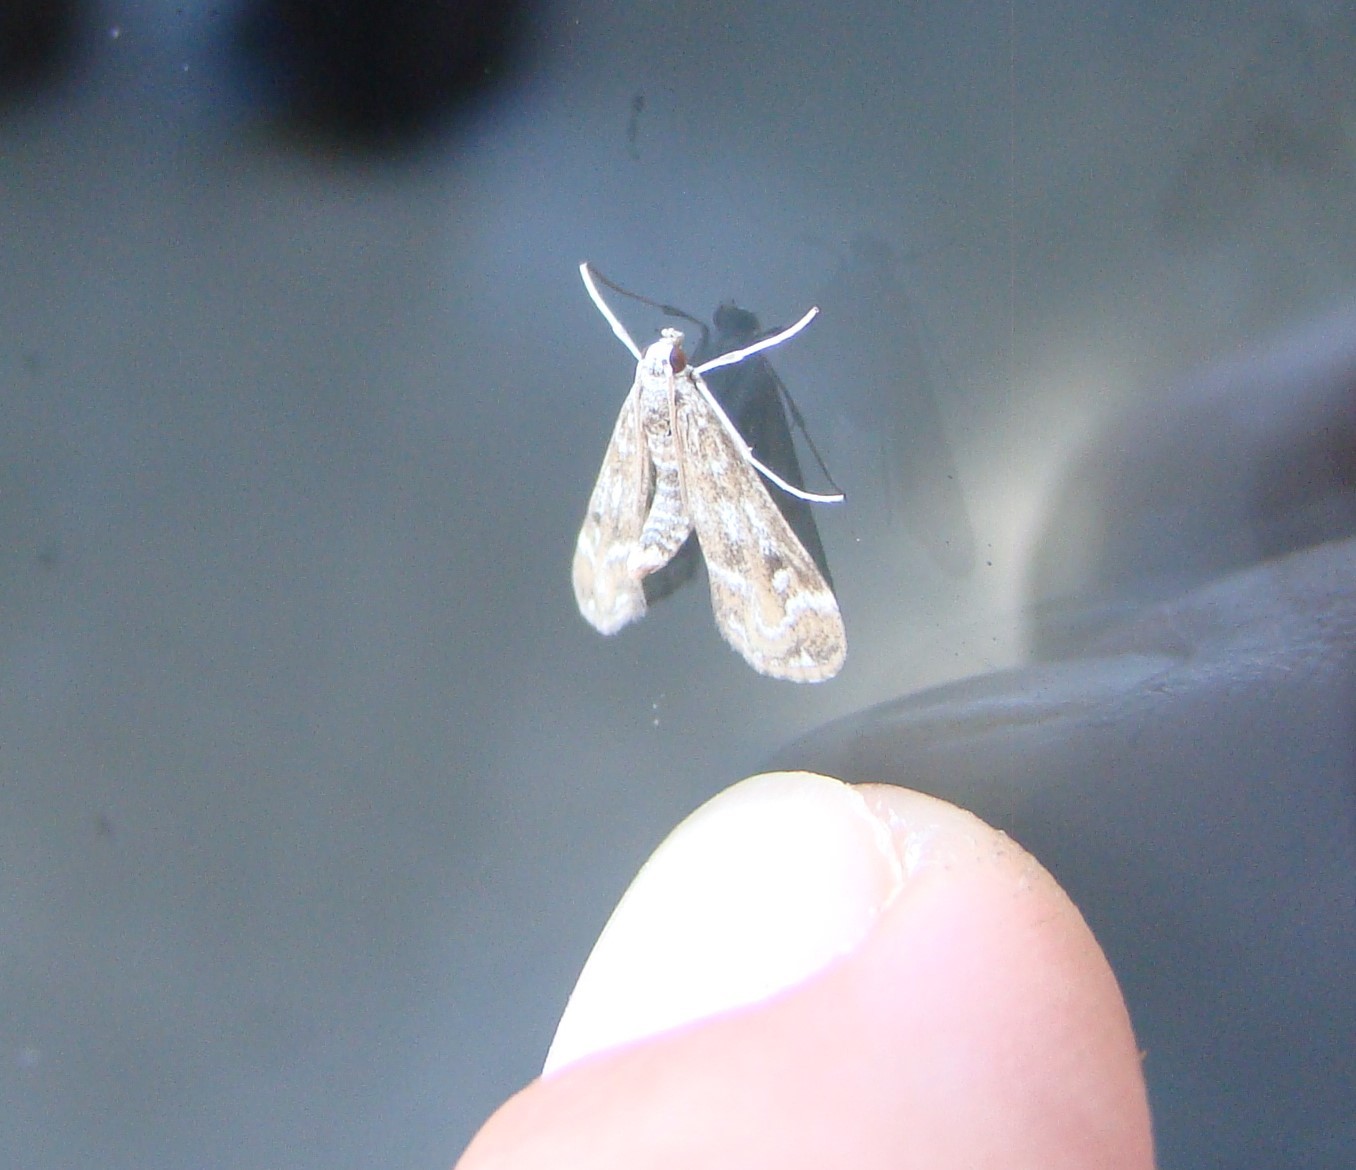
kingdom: Animalia
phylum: Arthropoda
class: Insecta
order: Lepidoptera
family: Crambidae
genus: Hygraula
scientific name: Hygraula nitens
